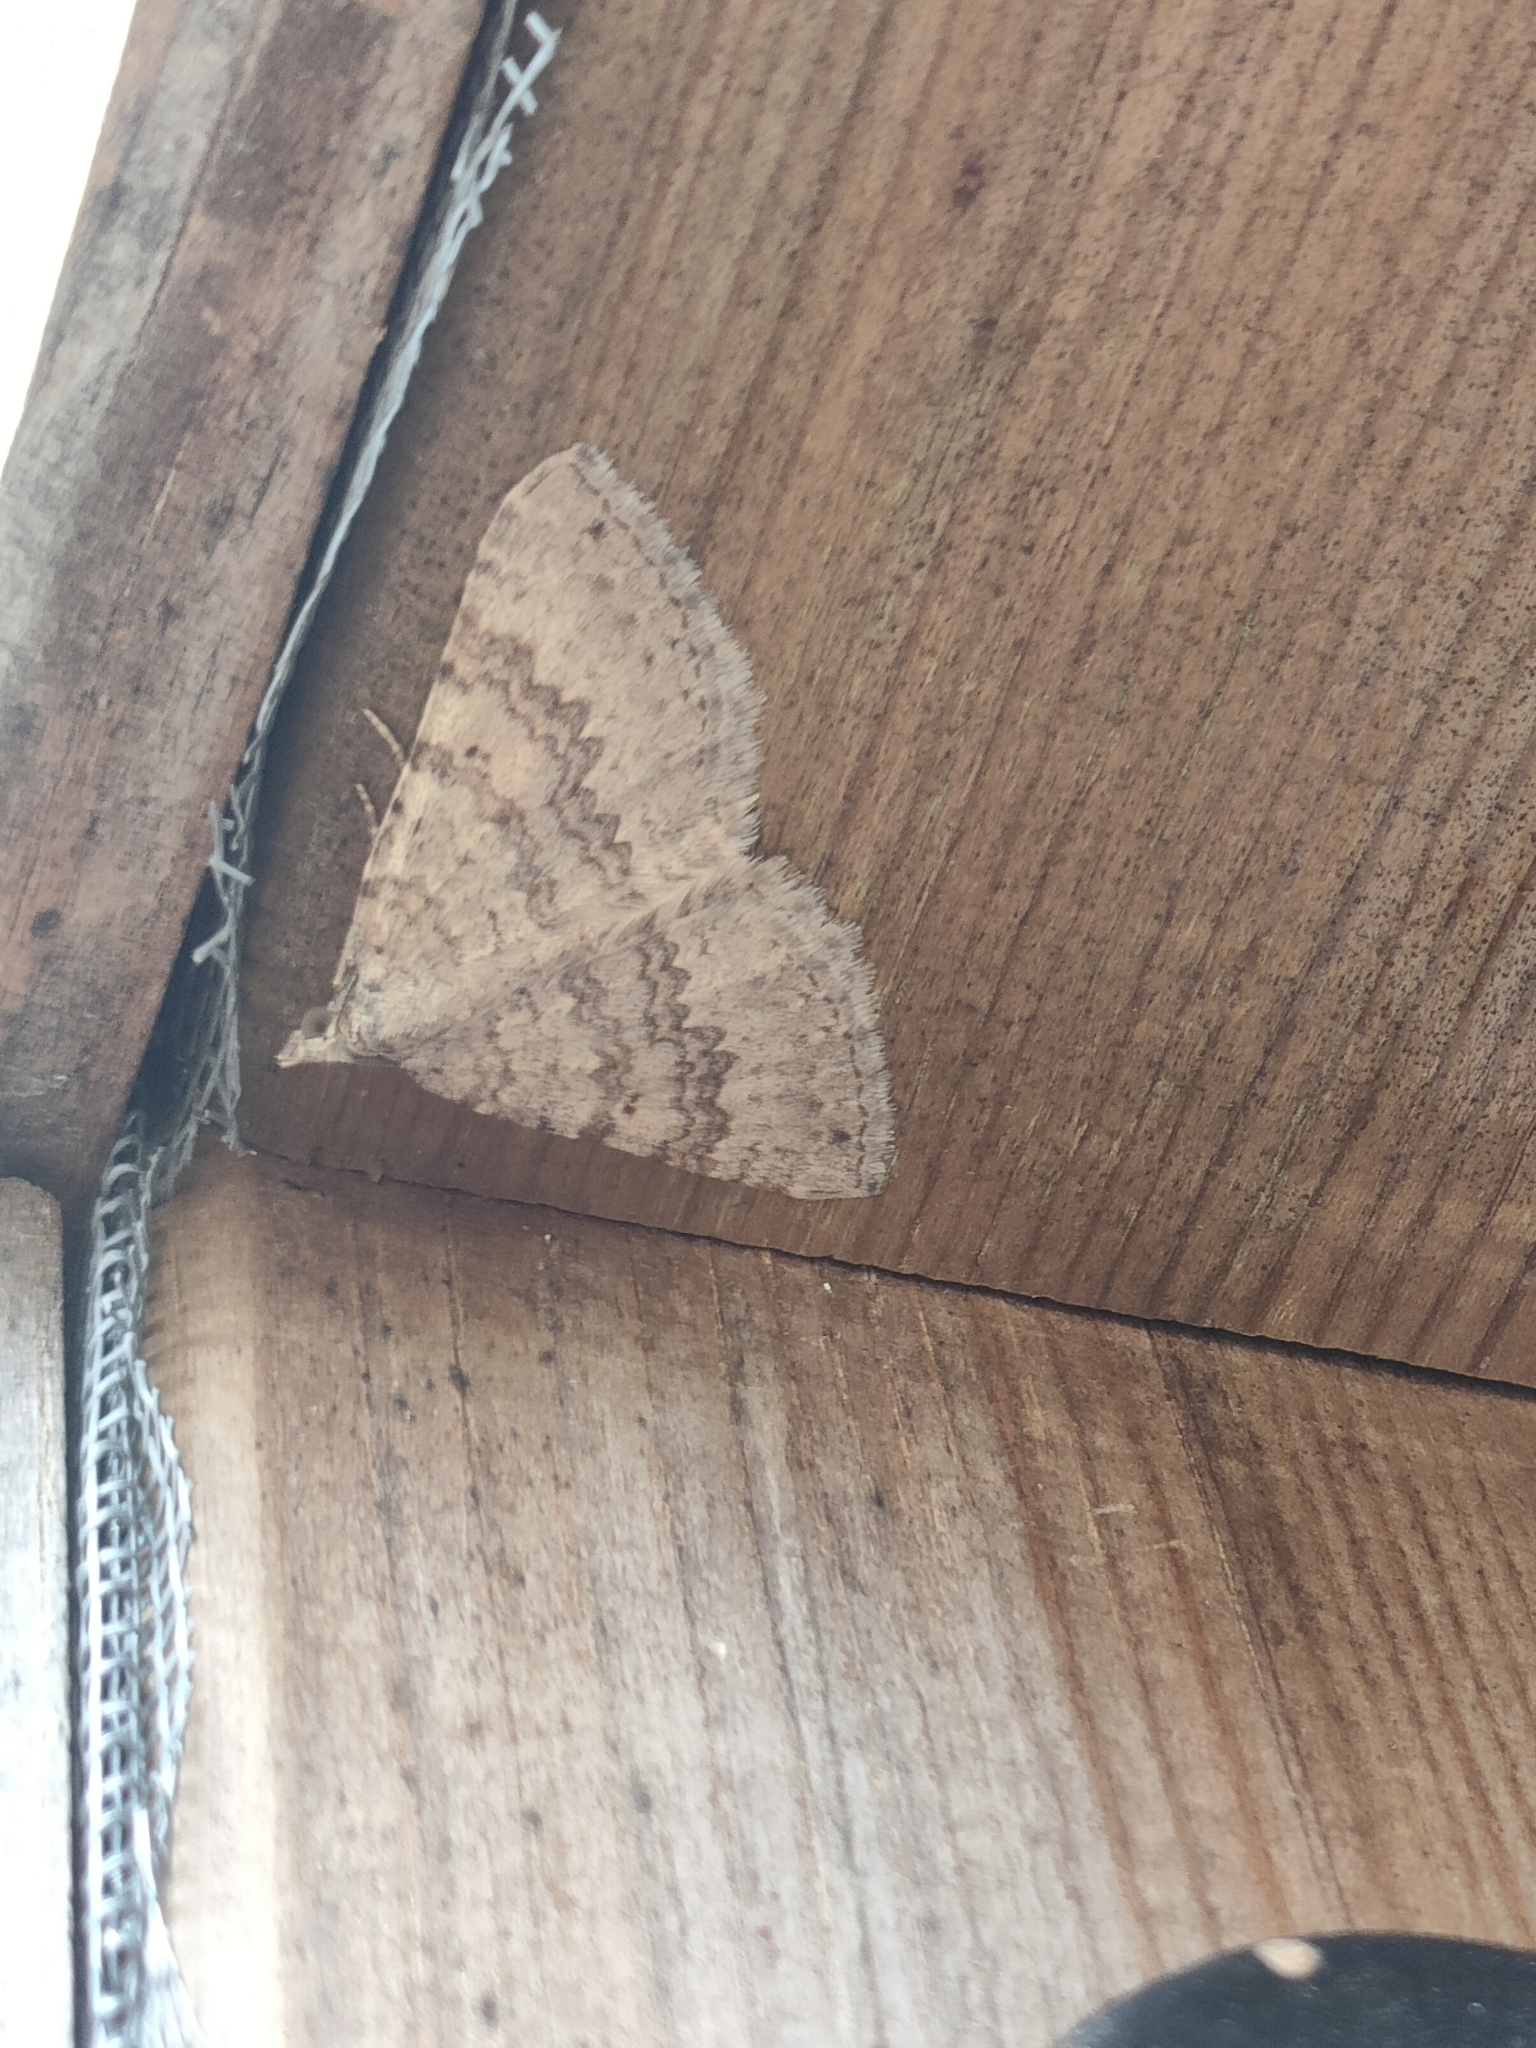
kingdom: Animalia
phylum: Arthropoda
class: Insecta
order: Lepidoptera
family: Geometridae
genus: Scotopteryx
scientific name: Scotopteryx octodurensis
